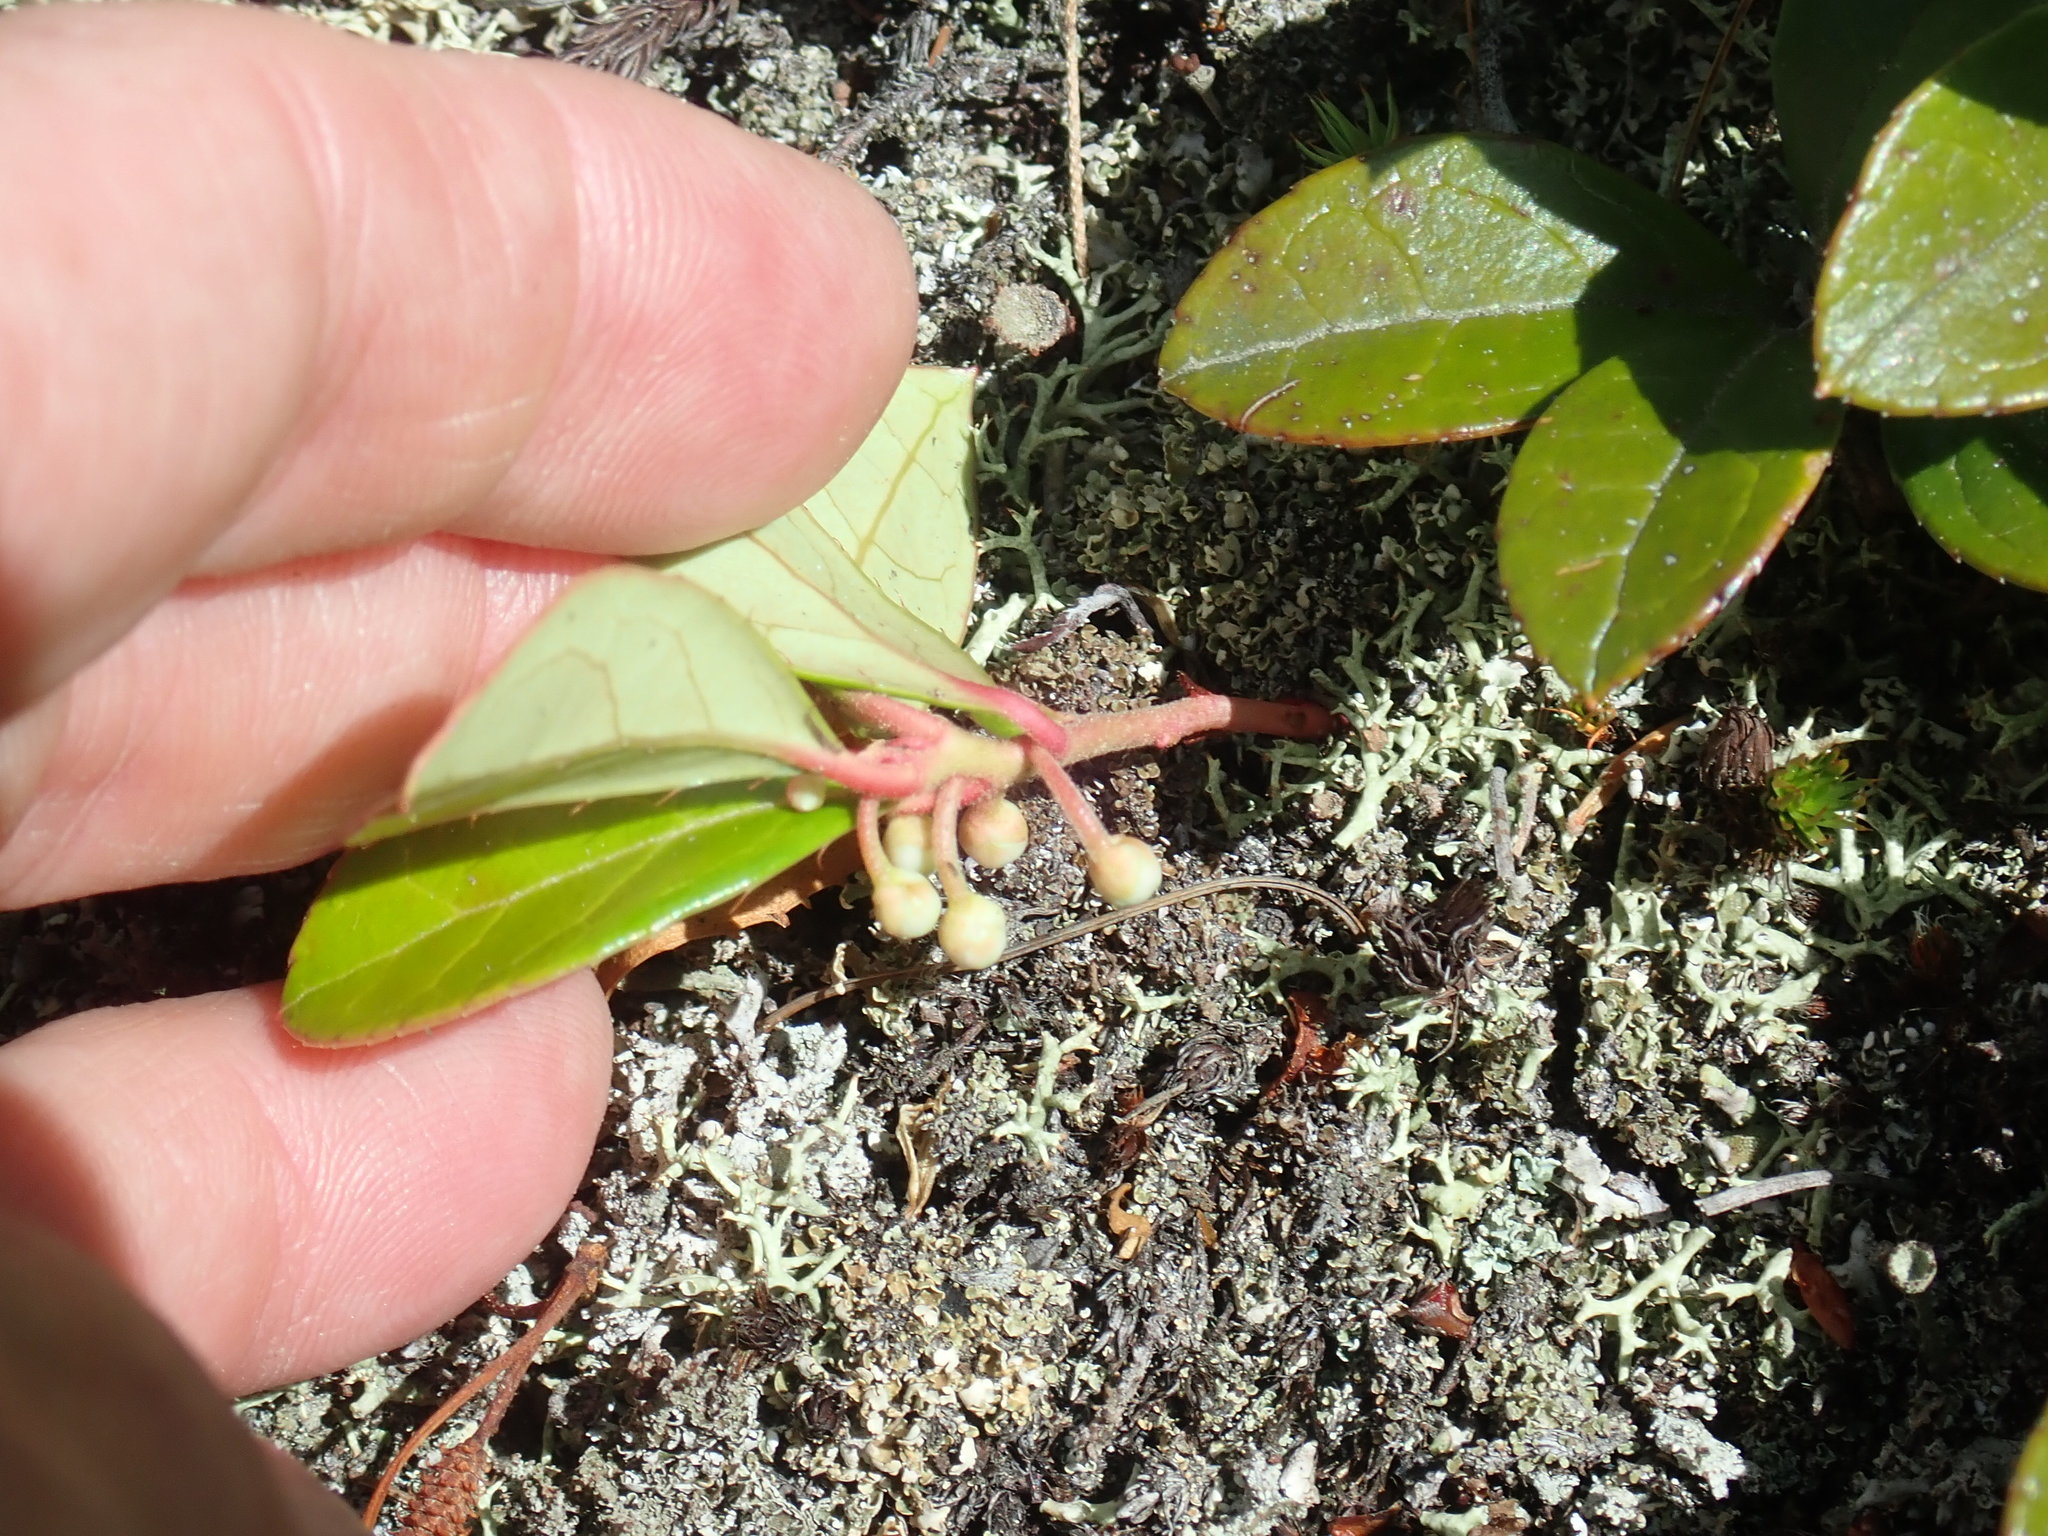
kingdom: Plantae
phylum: Tracheophyta
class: Magnoliopsida
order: Ericales
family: Ericaceae
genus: Gaultheria
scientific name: Gaultheria procumbens
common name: Checkerberry
